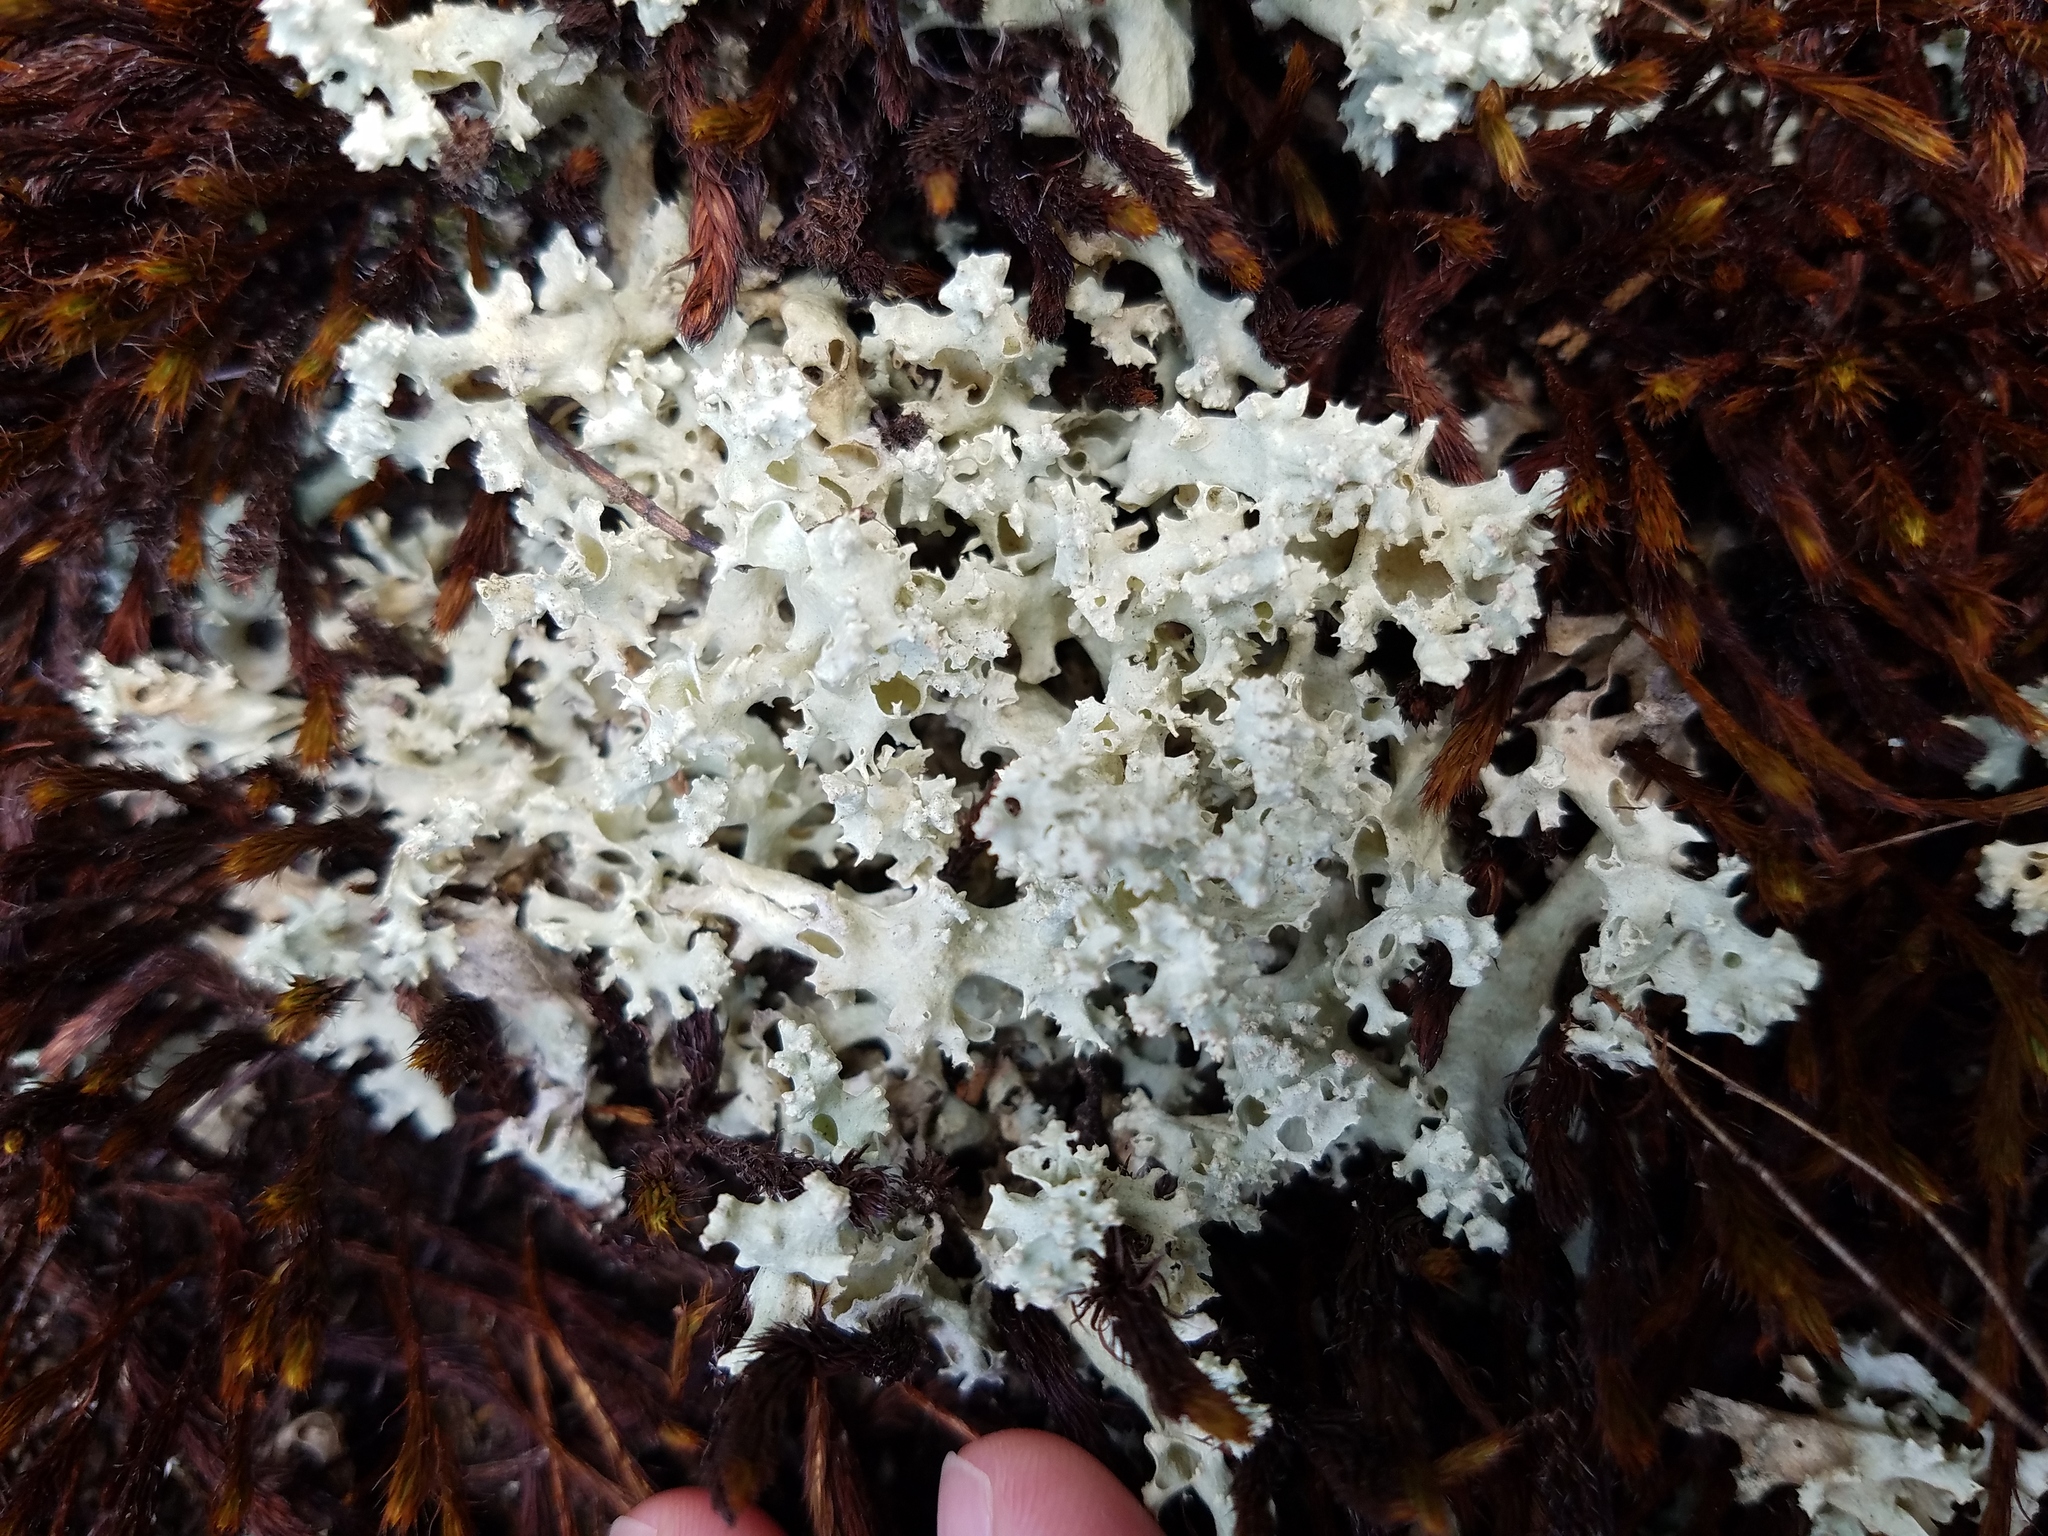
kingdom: Fungi
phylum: Ascomycota
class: Lecanoromycetes
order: Lecanorales
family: Cladoniaceae
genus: Cladonia
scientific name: Cladonia caroliniana
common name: Granite thorn
